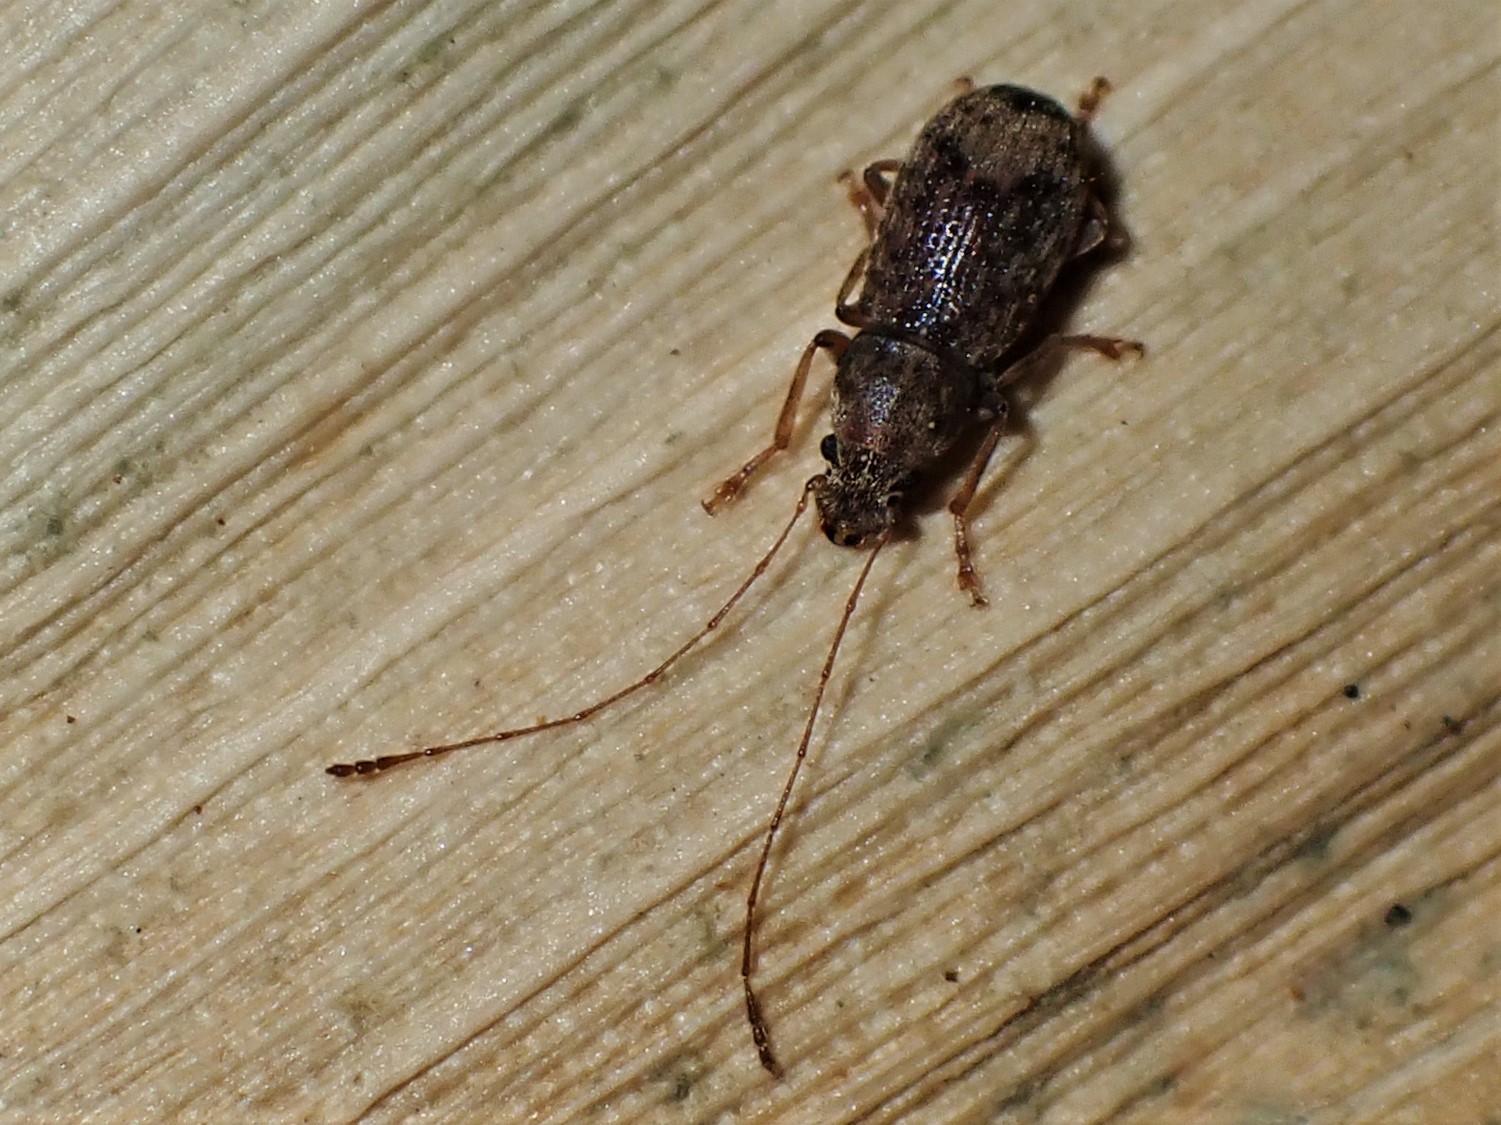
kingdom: Animalia
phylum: Arthropoda
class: Insecta
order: Coleoptera
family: Anthribidae
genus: Arecopais
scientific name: Arecopais spectabilis
